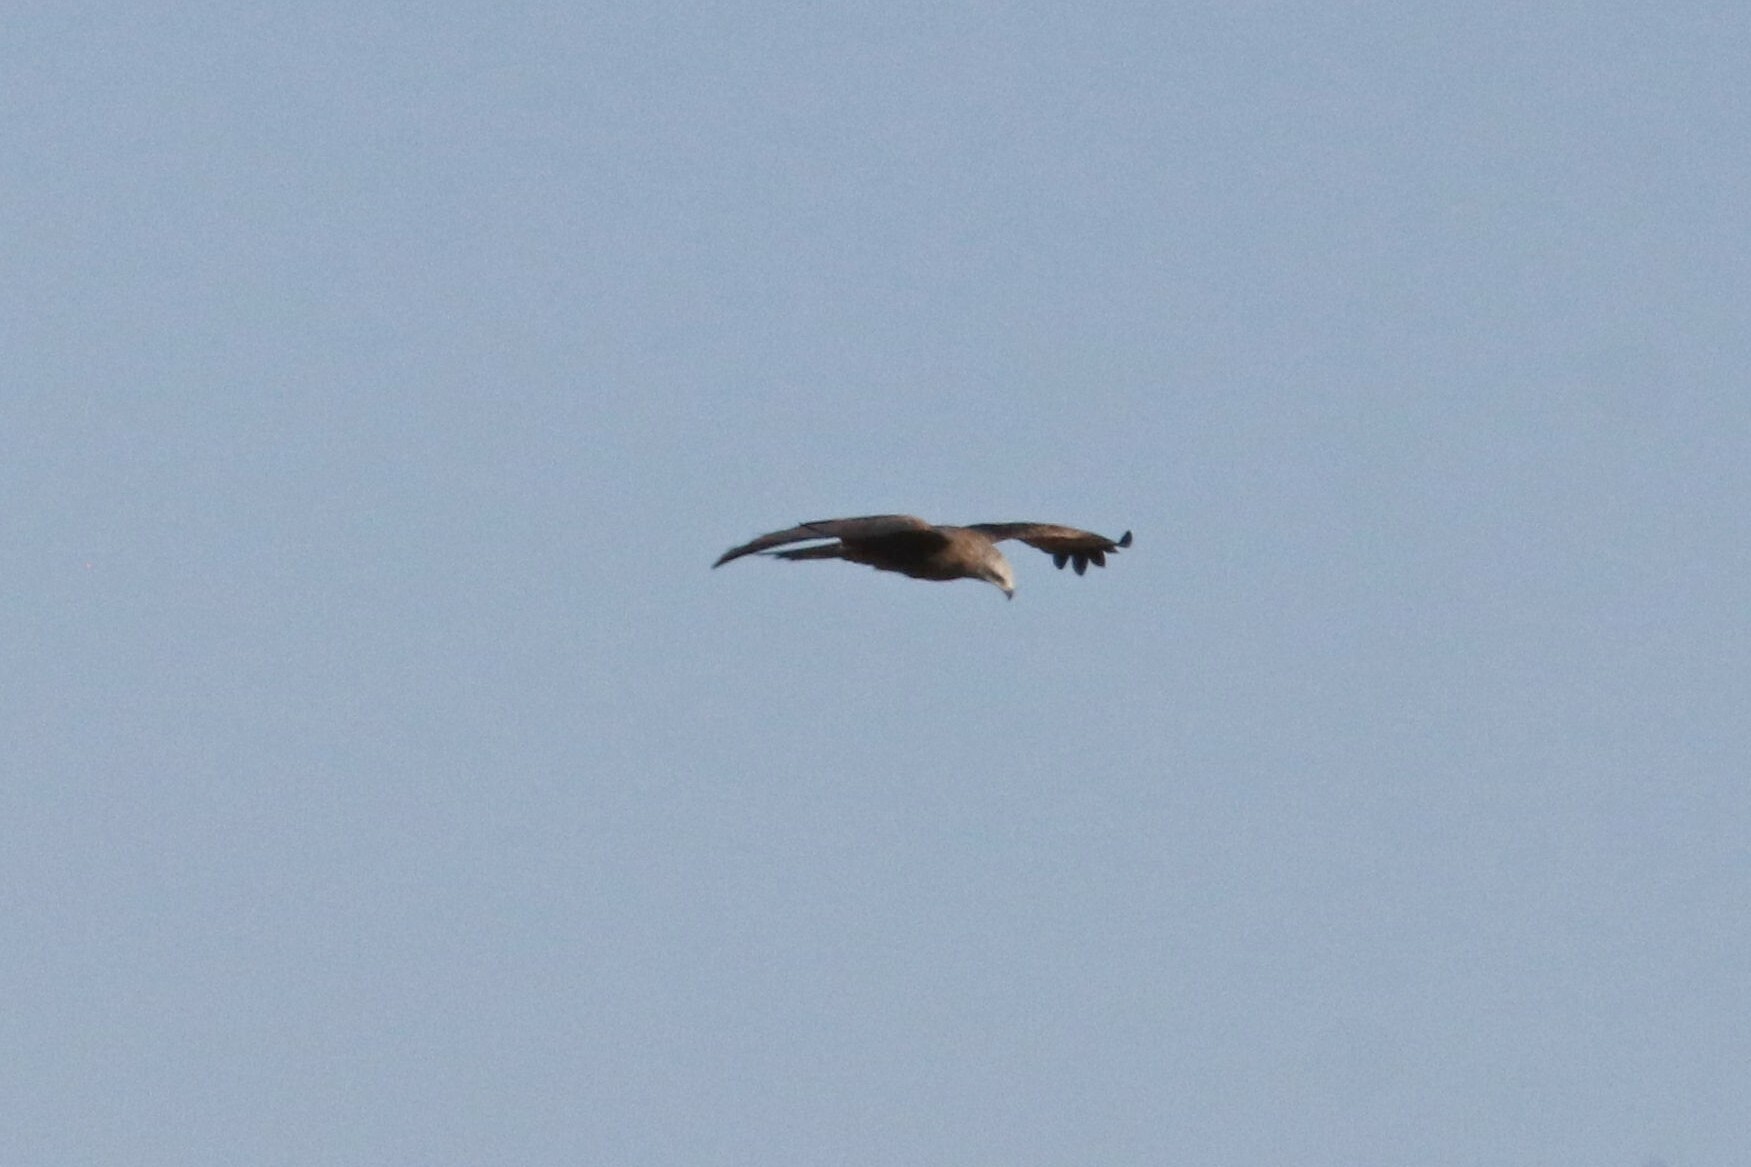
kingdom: Animalia
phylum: Chordata
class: Aves
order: Accipitriformes
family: Accipitridae
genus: Milvus
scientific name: Milvus migrans
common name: Black kite
